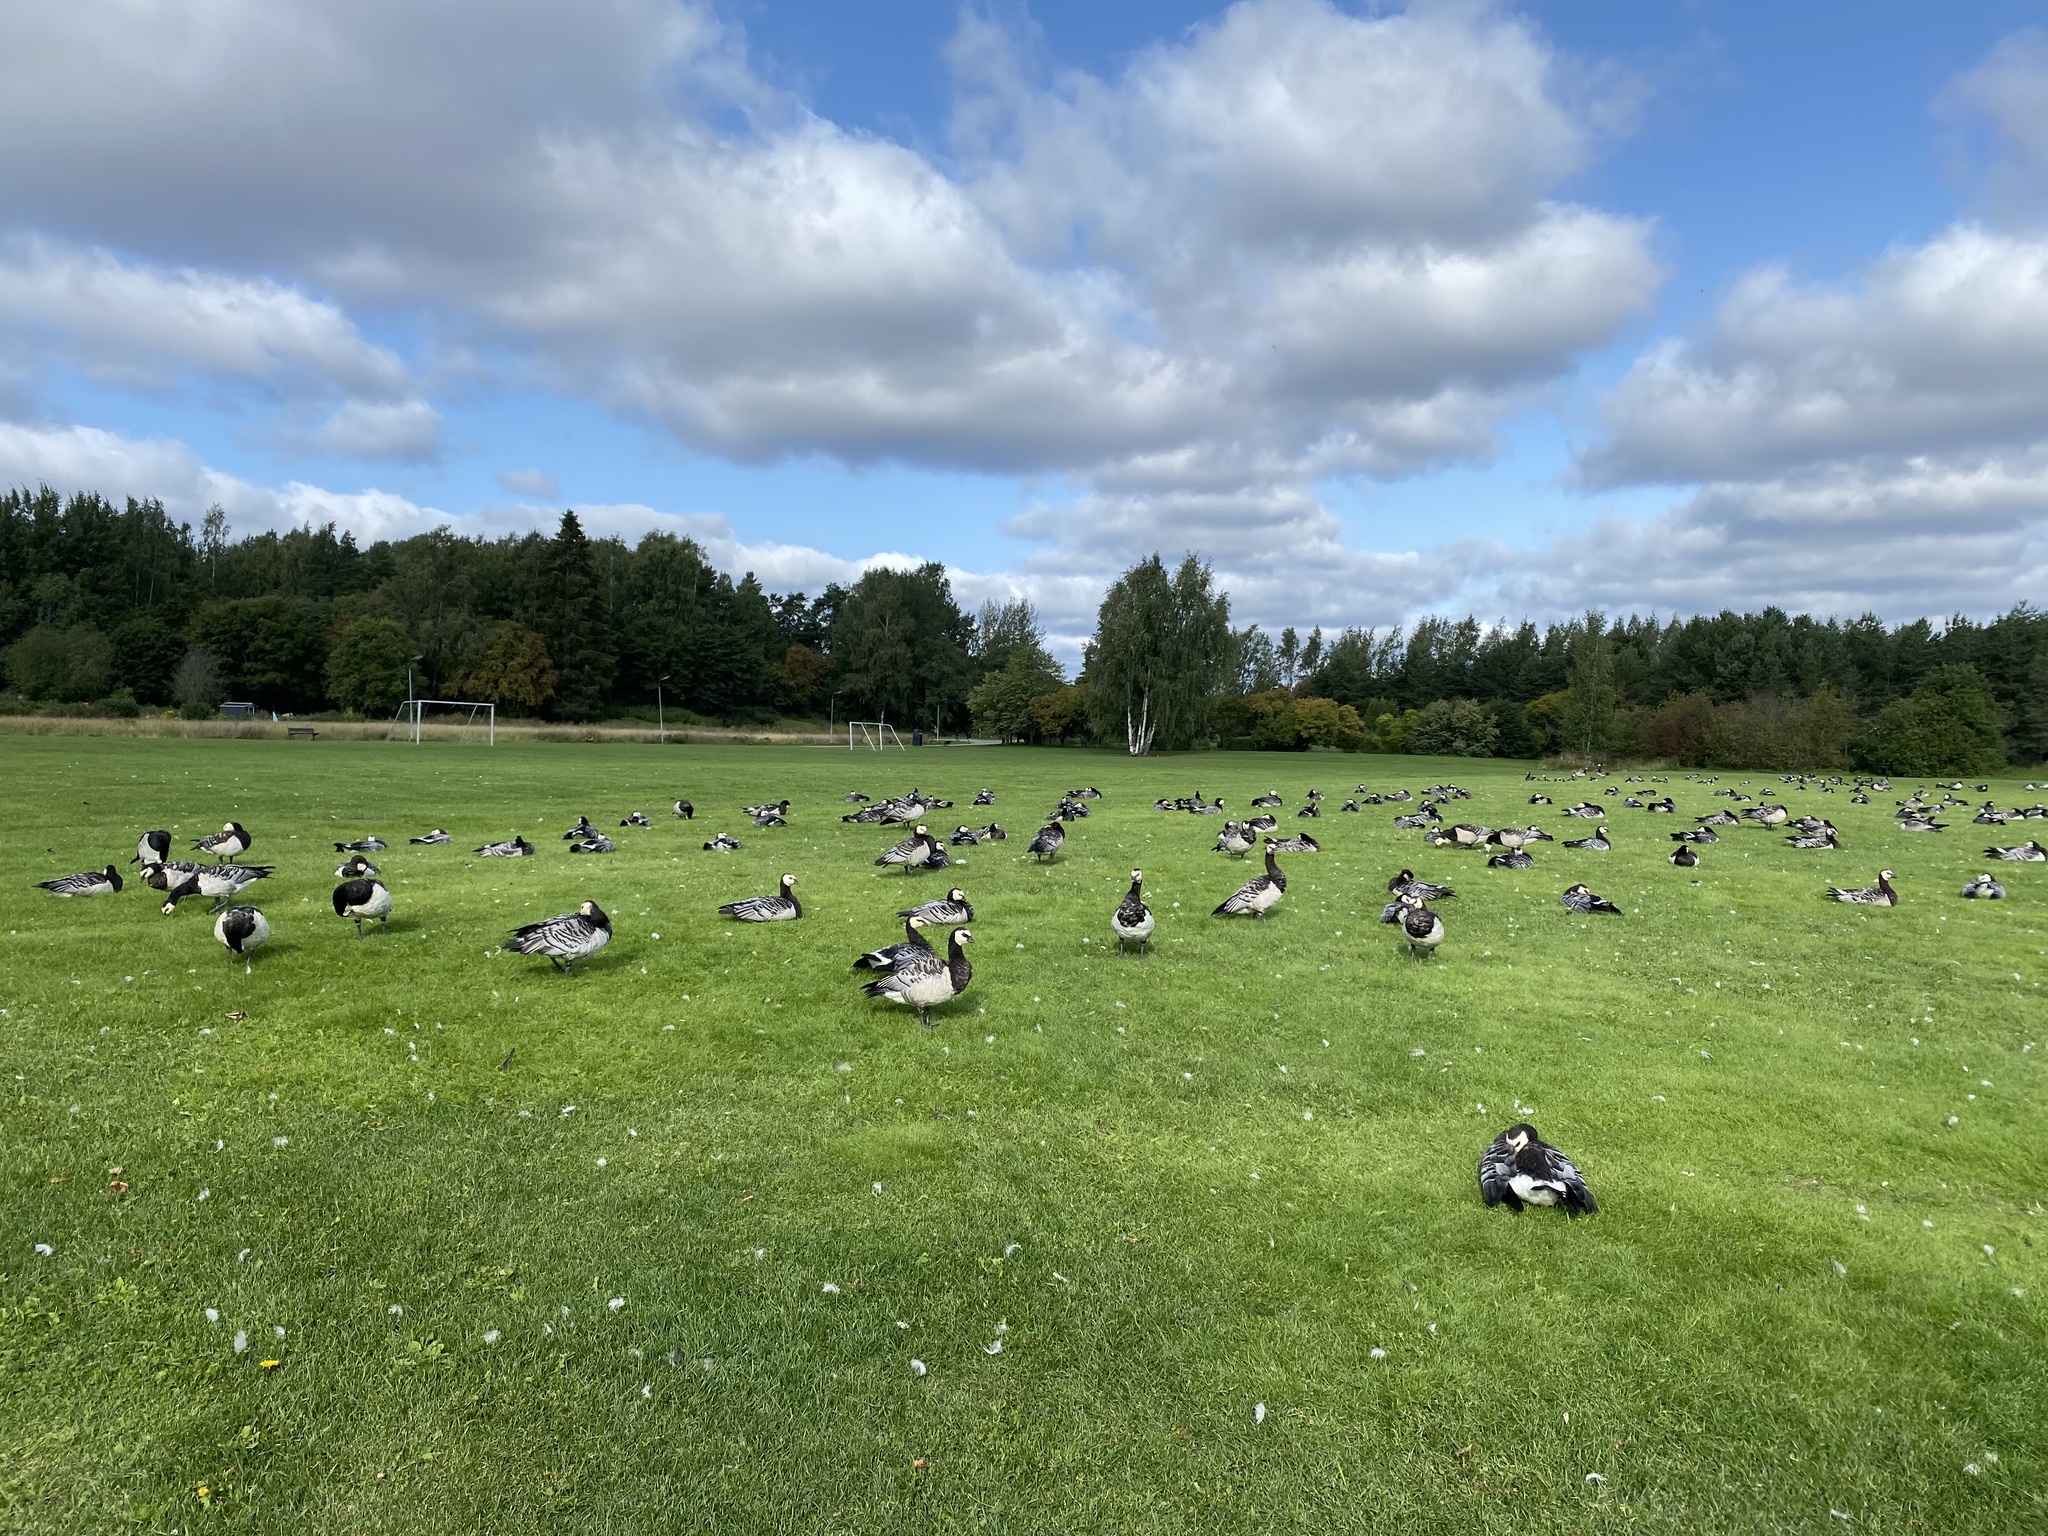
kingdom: Animalia
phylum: Chordata
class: Aves
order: Anseriformes
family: Anatidae
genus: Branta
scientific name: Branta leucopsis
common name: Barnacle goose
